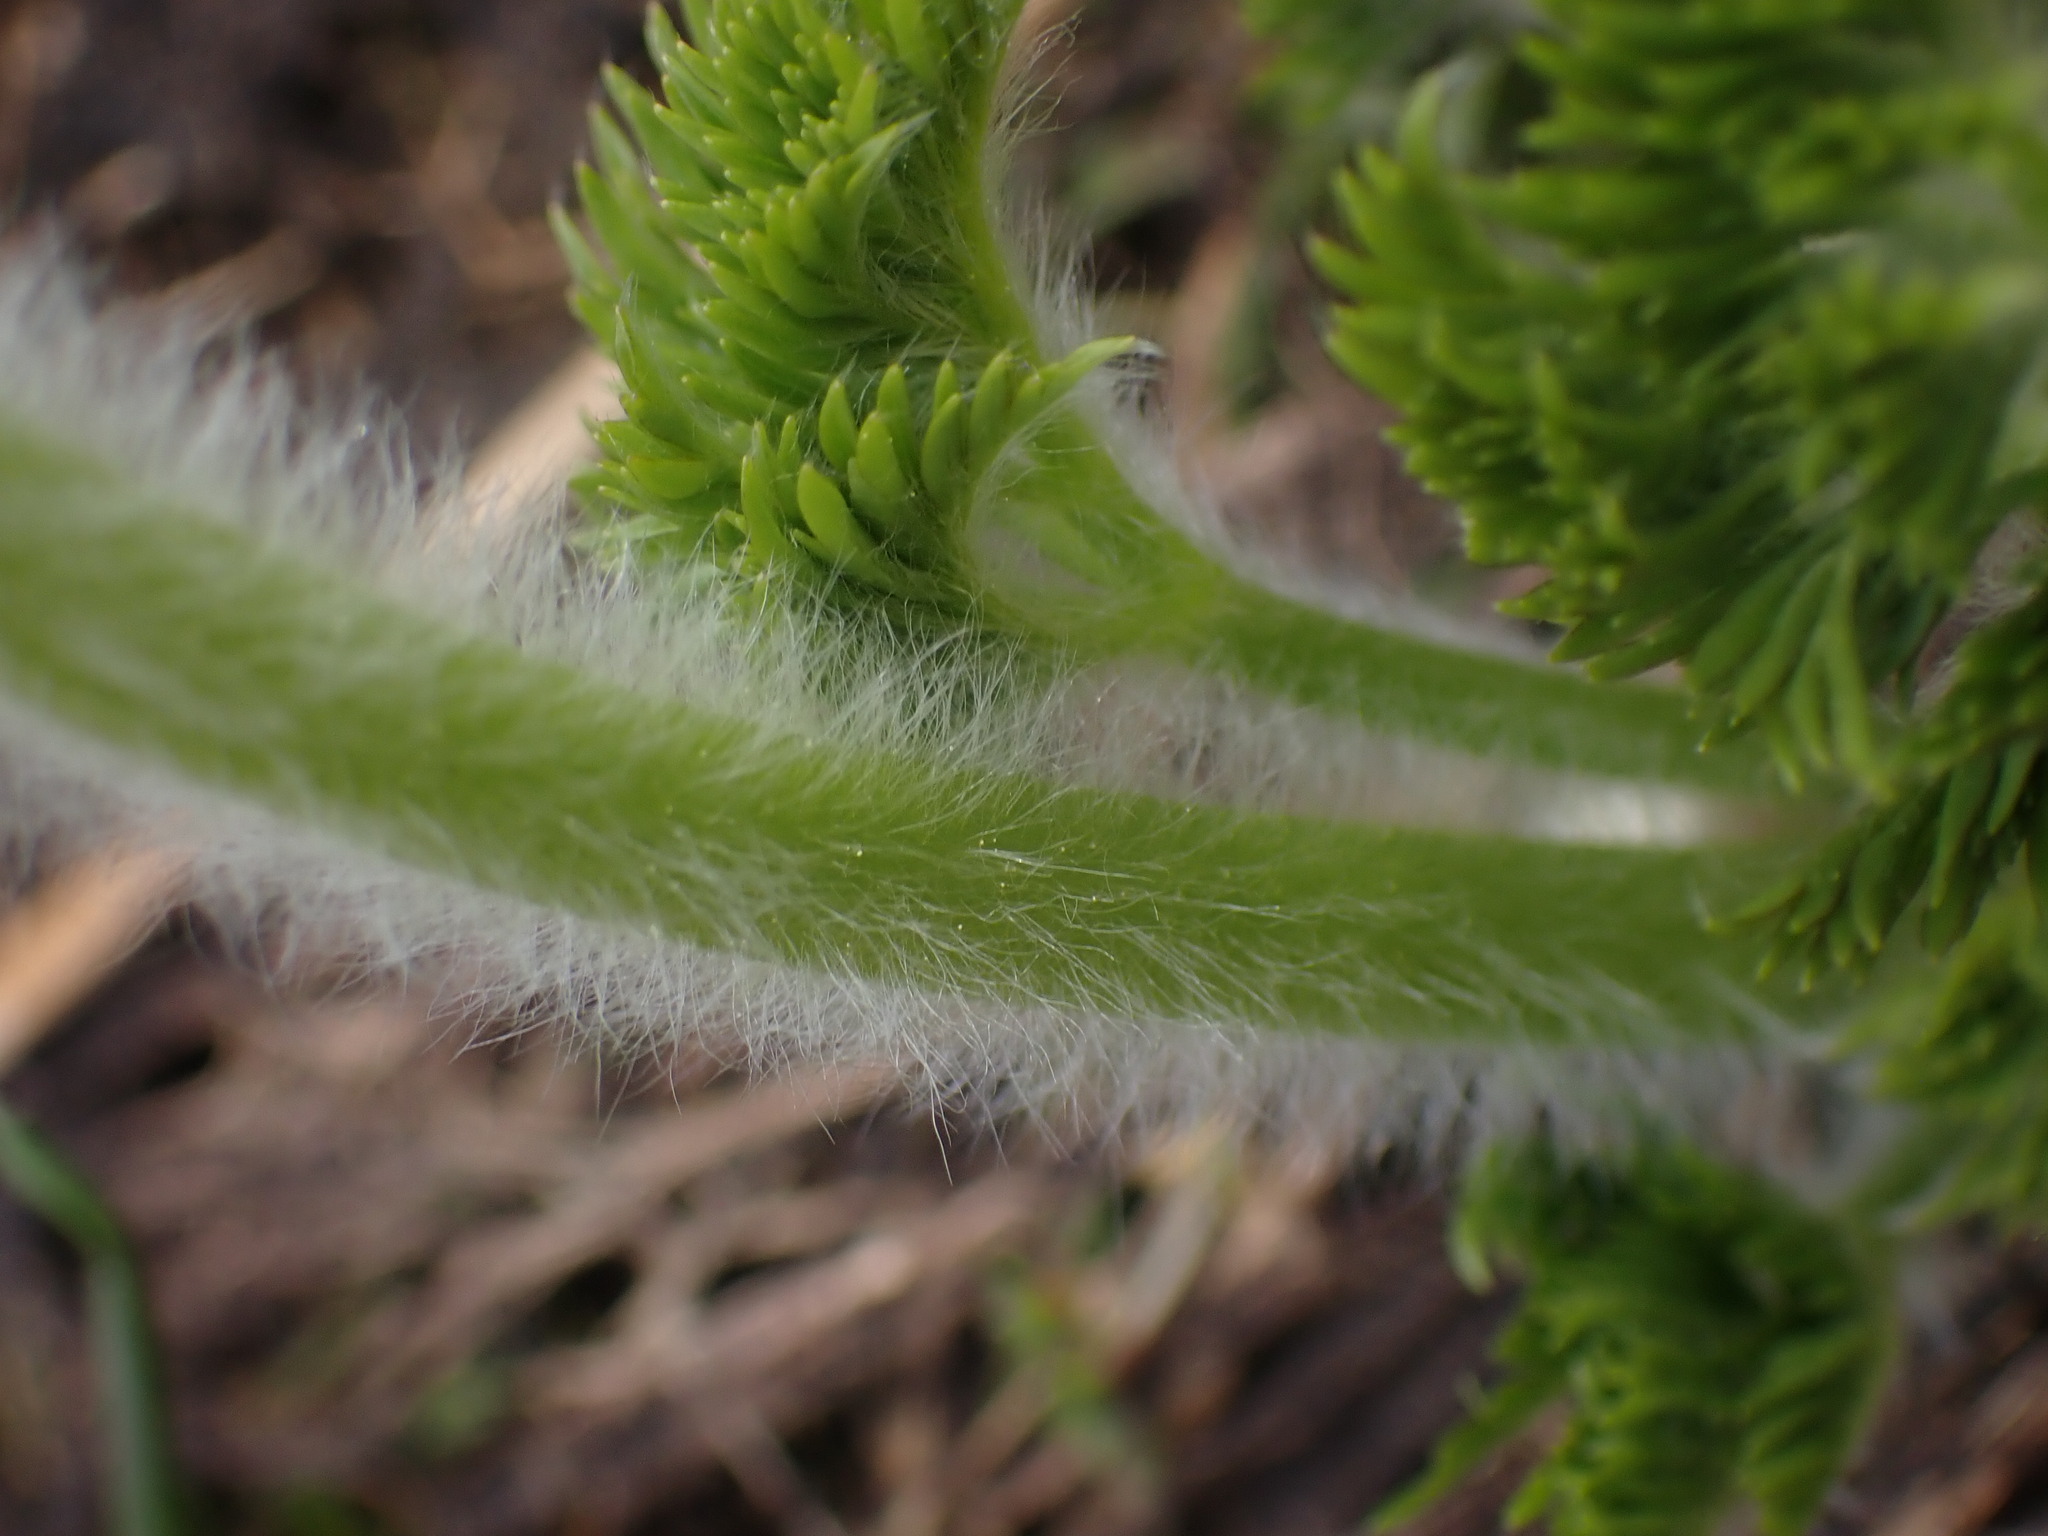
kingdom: Plantae
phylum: Tracheophyta
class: Magnoliopsida
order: Ranunculales
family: Ranunculaceae
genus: Pulsatilla
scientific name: Pulsatilla occidentalis
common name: Mountain pasqueflower
